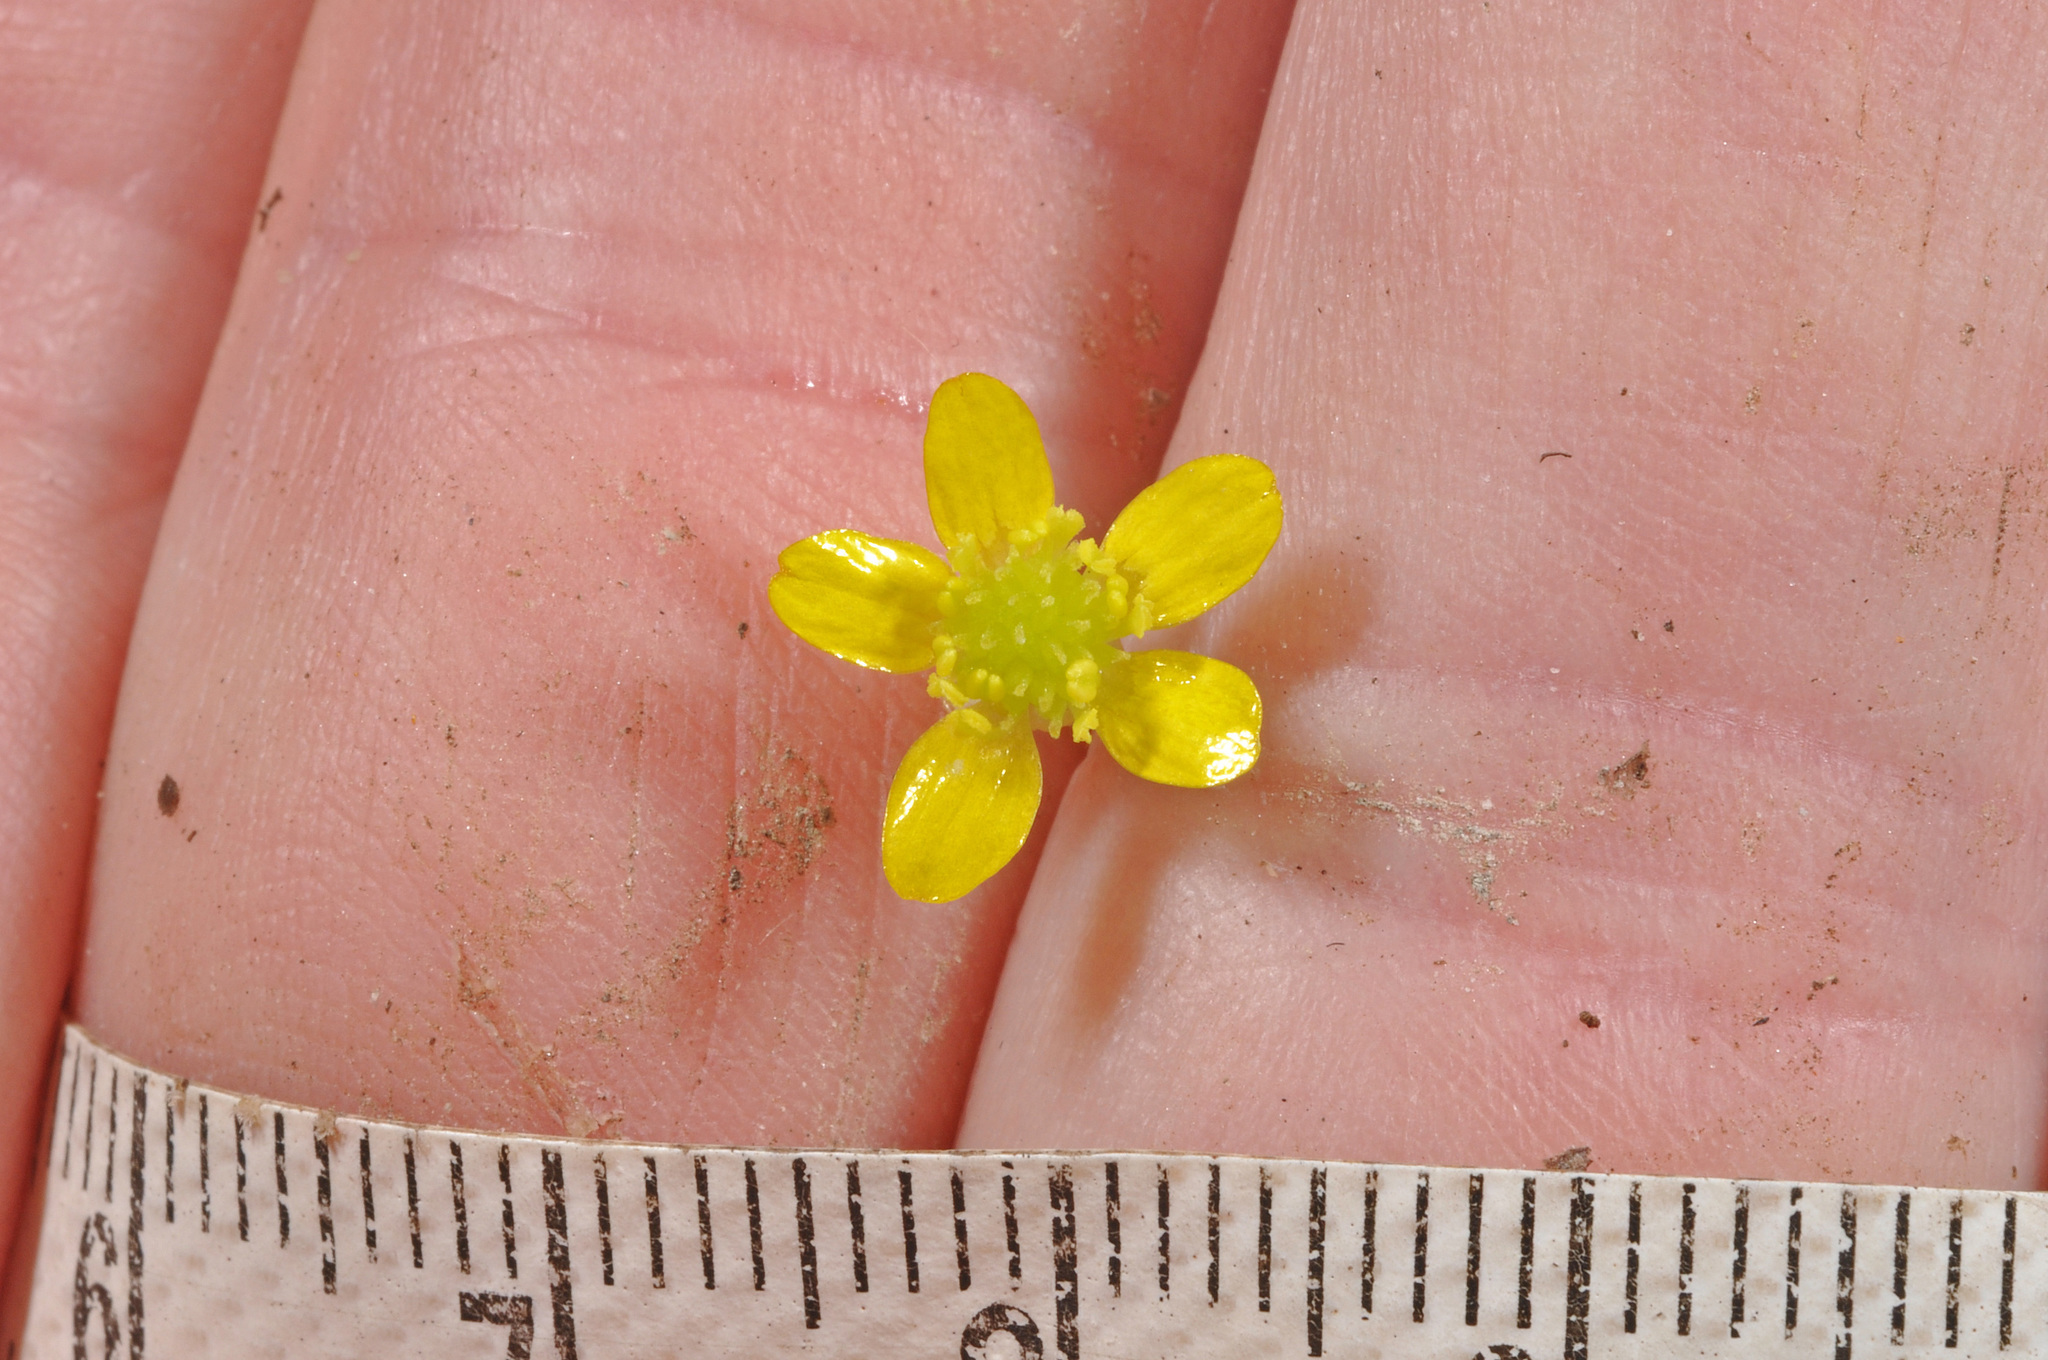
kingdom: Plantae
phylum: Tracheophyta
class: Magnoliopsida
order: Ranunculales
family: Ranunculaceae
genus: Ranunculus
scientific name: Ranunculus reflexus
